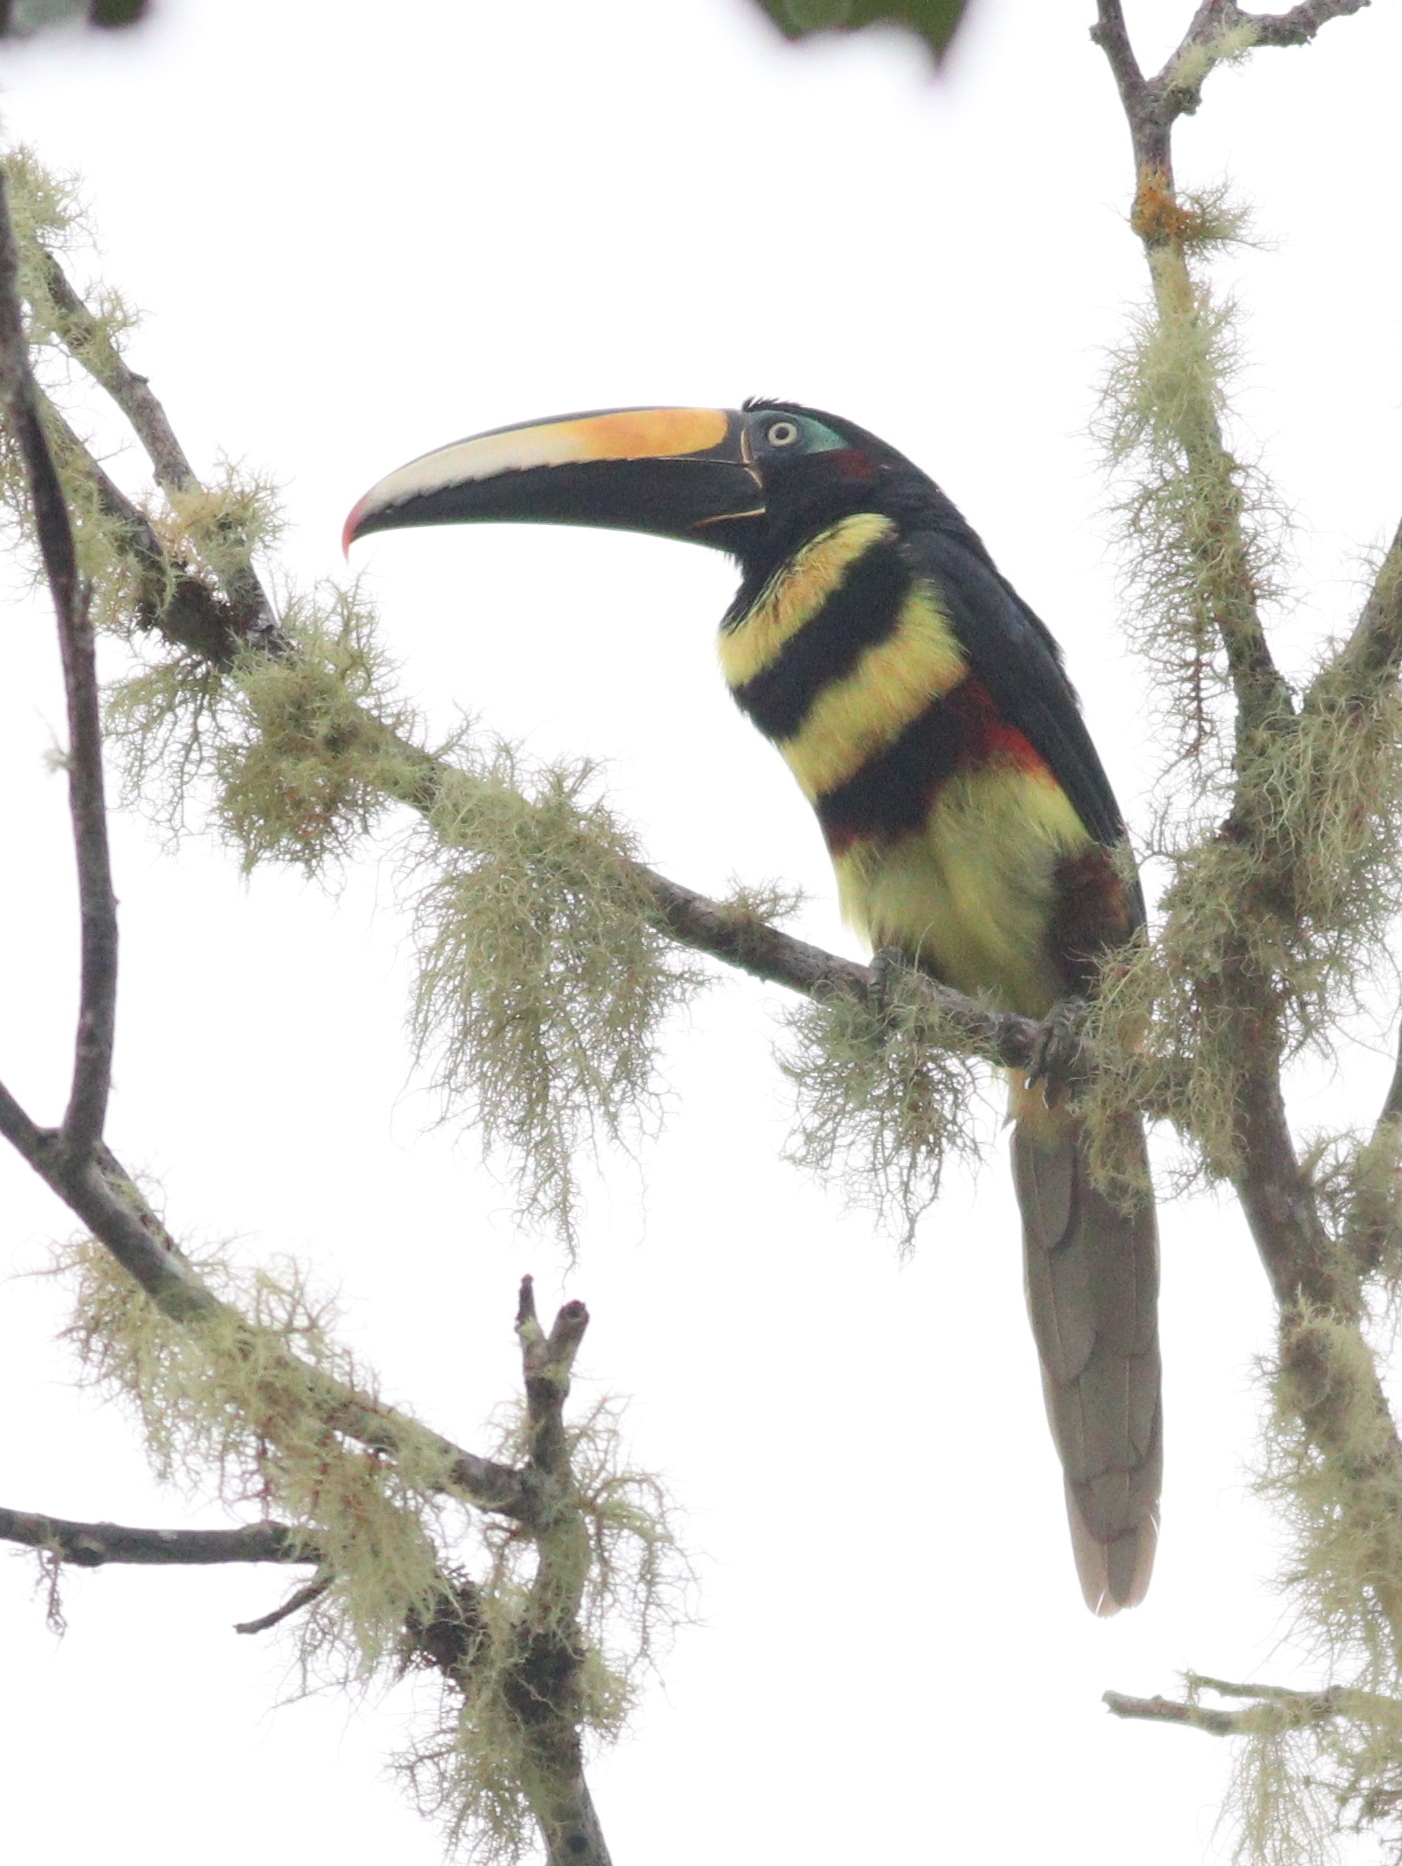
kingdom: Animalia
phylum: Chordata
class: Aves
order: Piciformes
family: Ramphastidae
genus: Pteroglossus
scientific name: Pteroglossus pluricinctus
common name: Many-banded aracari
